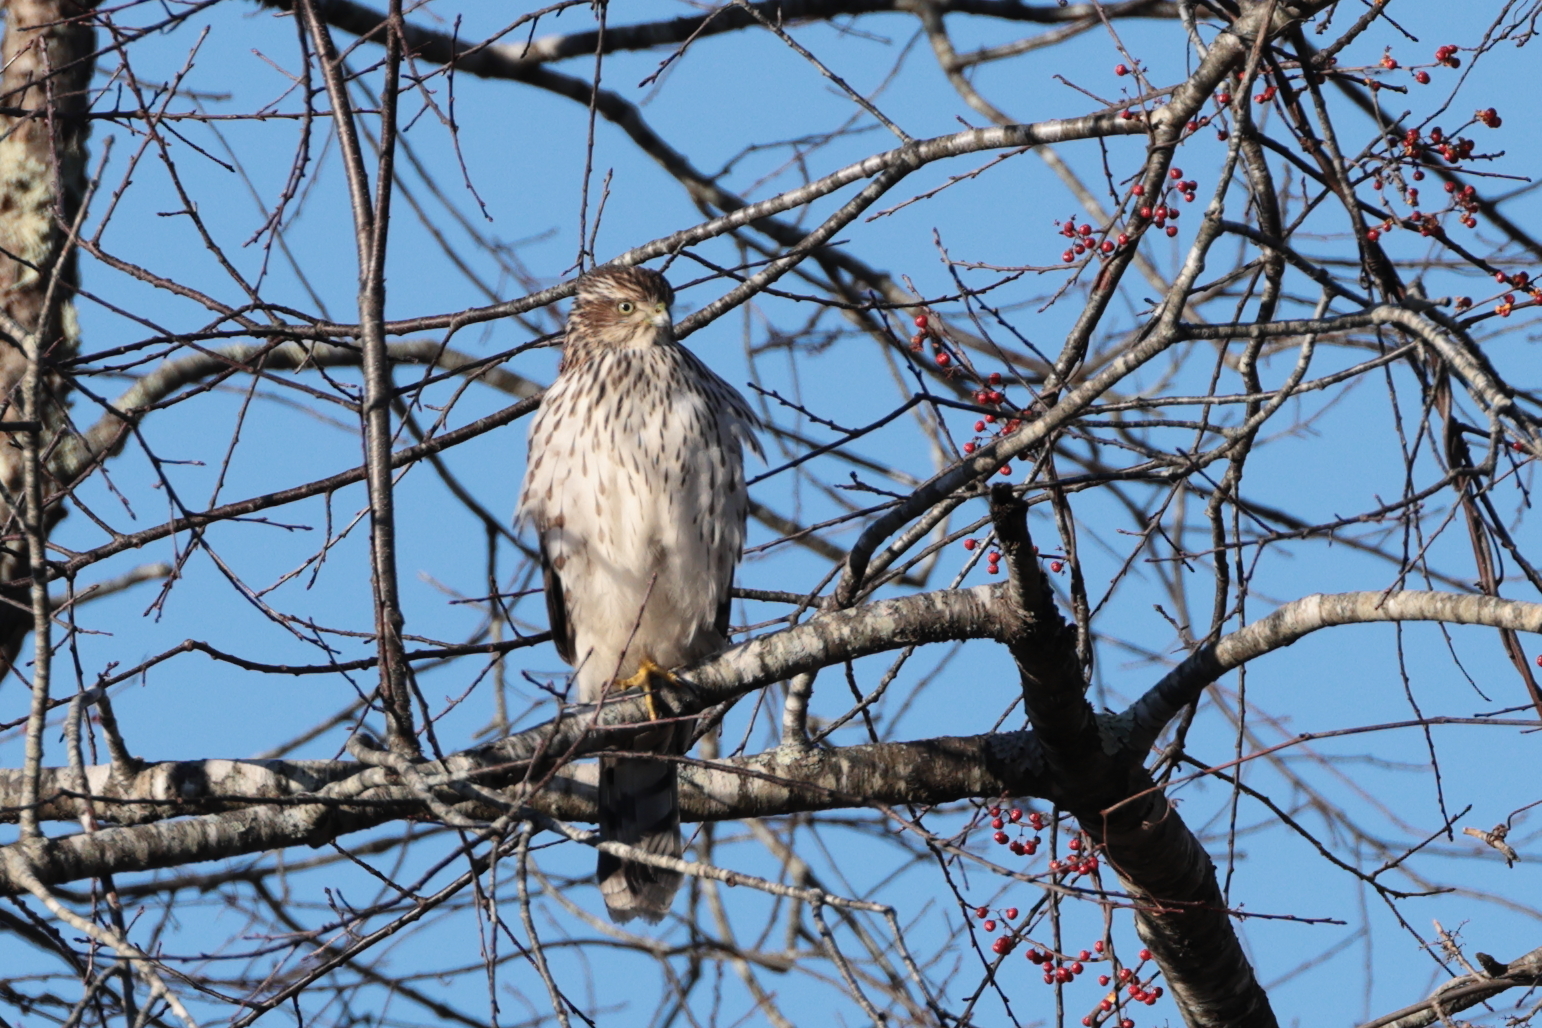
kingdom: Animalia
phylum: Chordata
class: Aves
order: Accipitriformes
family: Accipitridae
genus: Accipiter
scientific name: Accipiter cooperii
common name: Cooper's hawk
